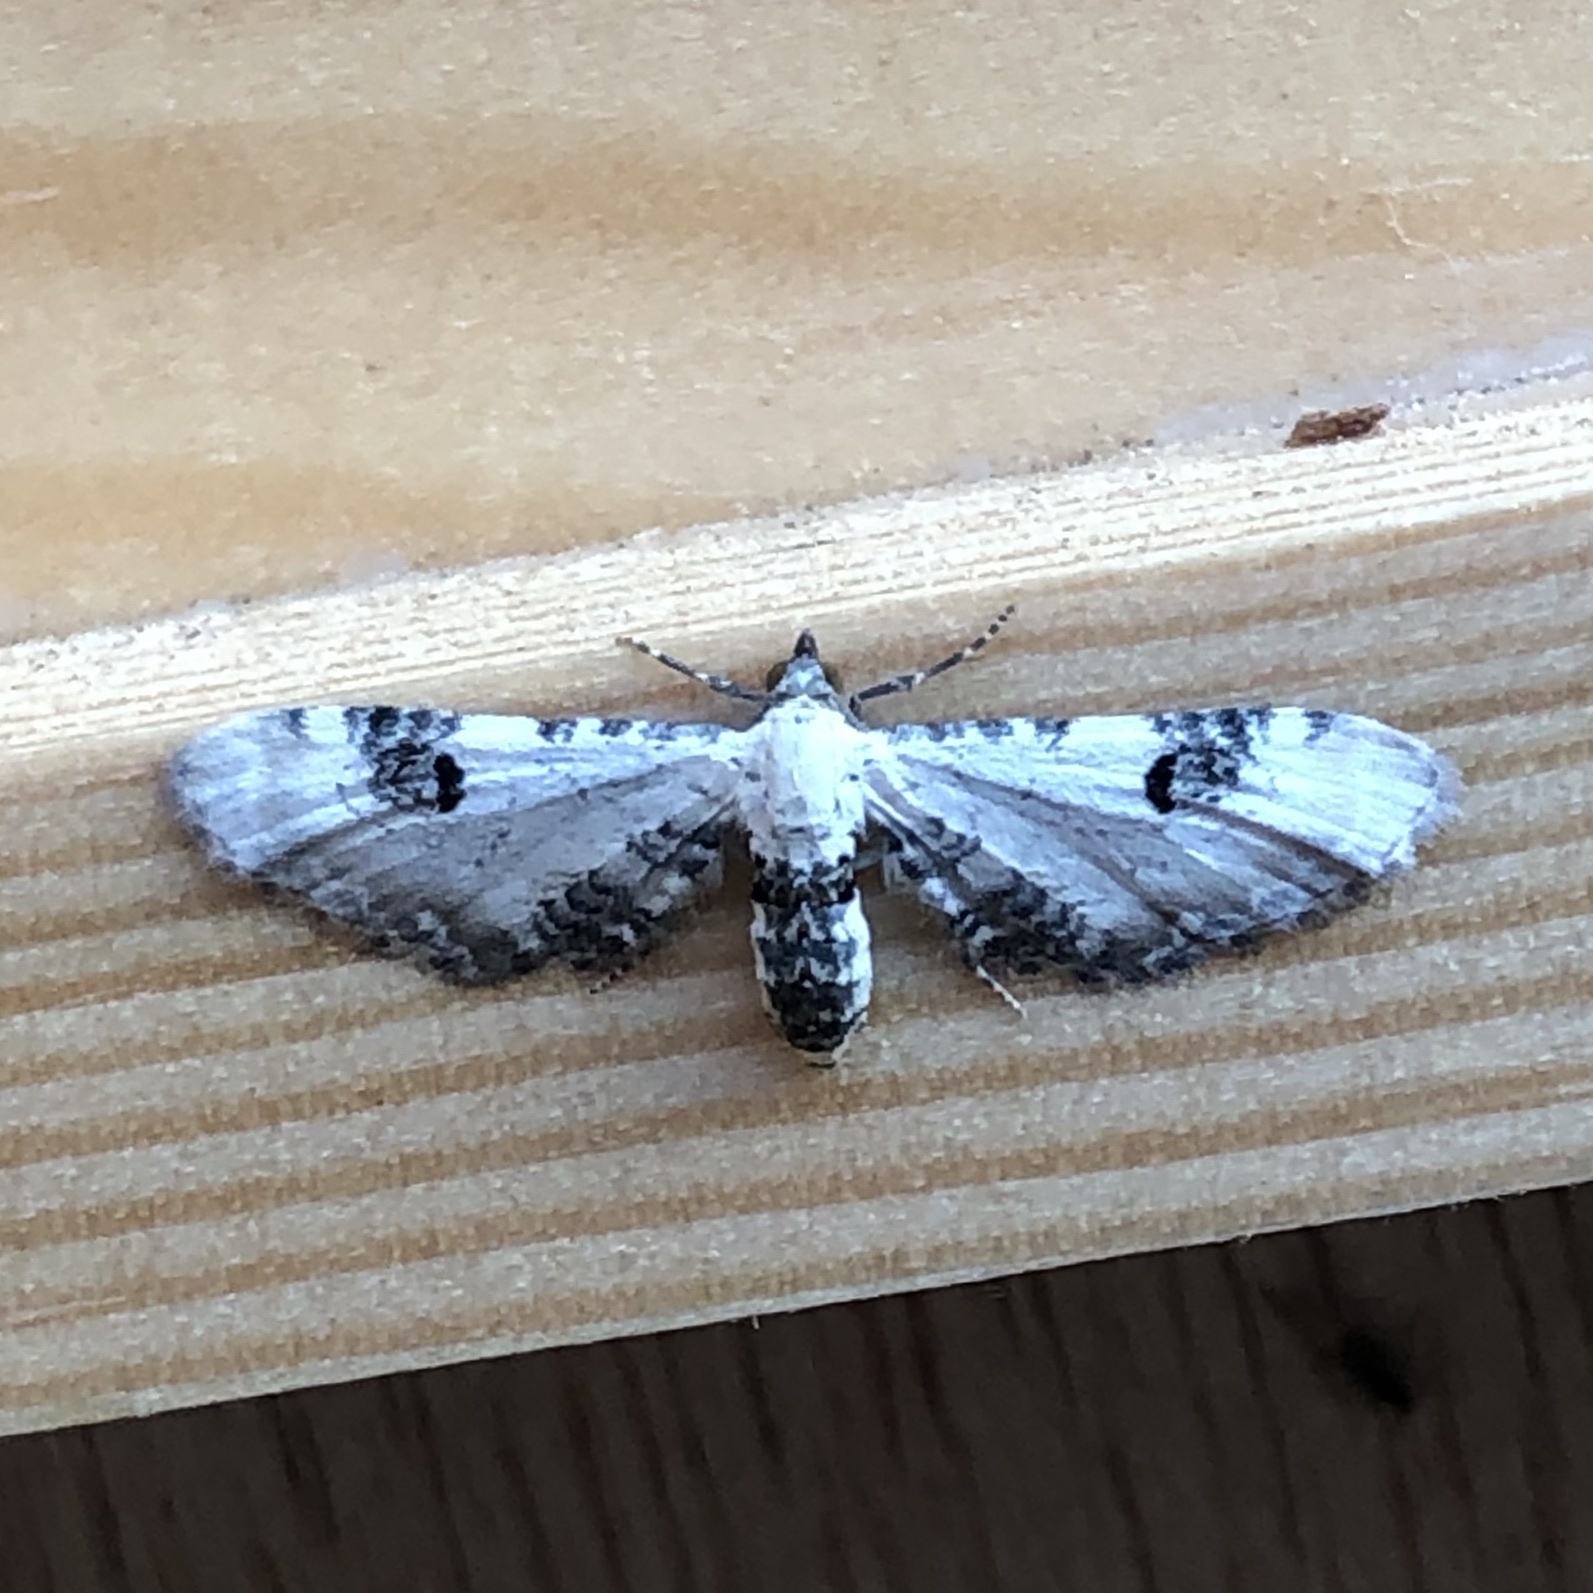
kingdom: Animalia
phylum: Arthropoda
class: Insecta
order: Lepidoptera
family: Geometridae
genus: Eupithecia
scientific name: Eupithecia centaureata
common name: Lime-speck pug
